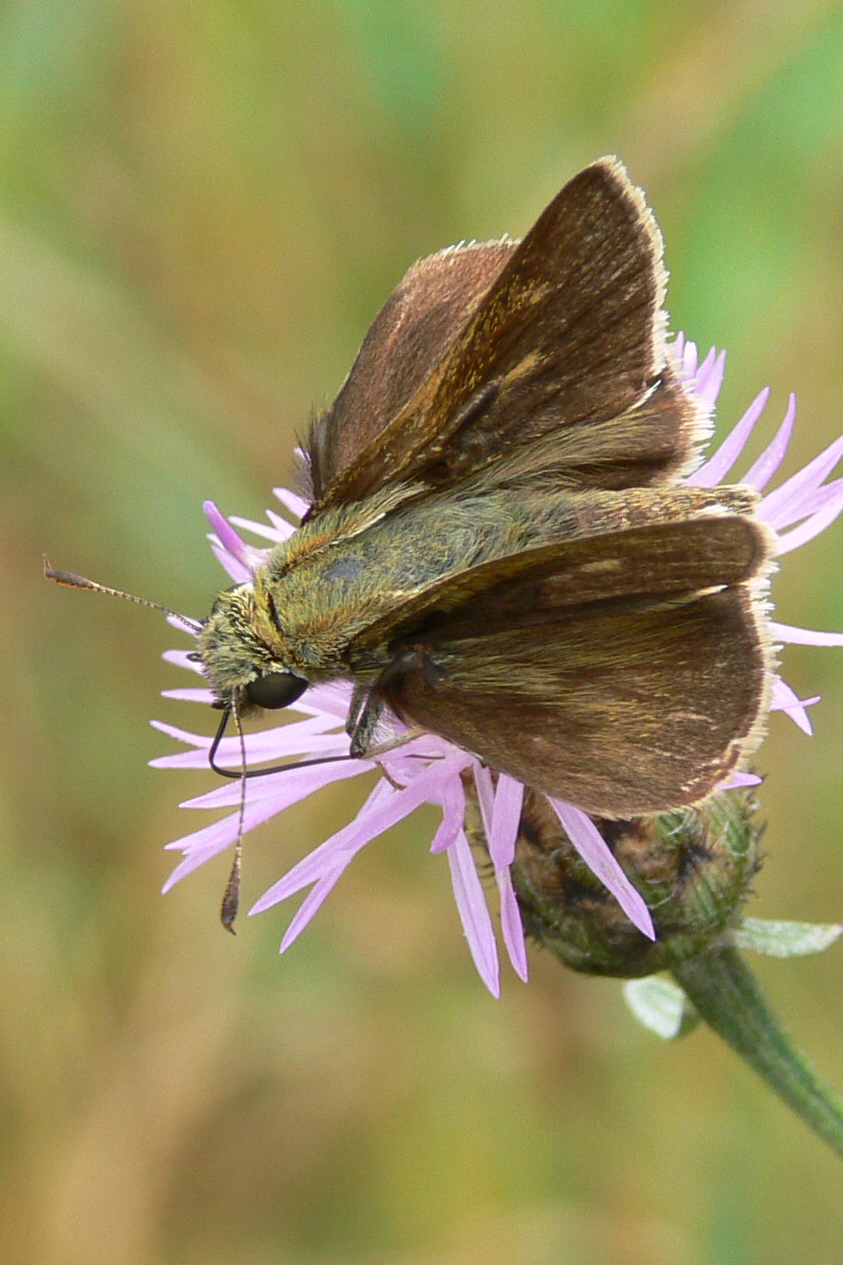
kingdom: Animalia
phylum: Arthropoda
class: Insecta
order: Lepidoptera
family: Hesperiidae
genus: Polites
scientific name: Polites egeremet
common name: Northern broken-dash
